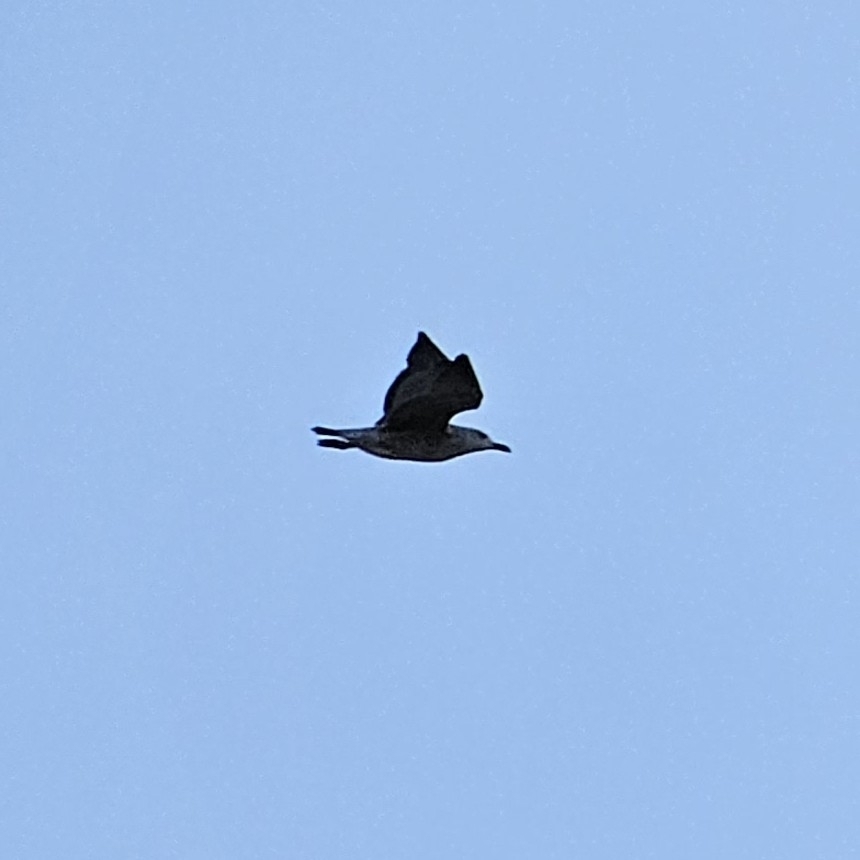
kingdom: Animalia
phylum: Chordata
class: Aves
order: Charadriiformes
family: Laridae
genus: Larus
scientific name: Larus michahellis
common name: Yellow-legged gull
